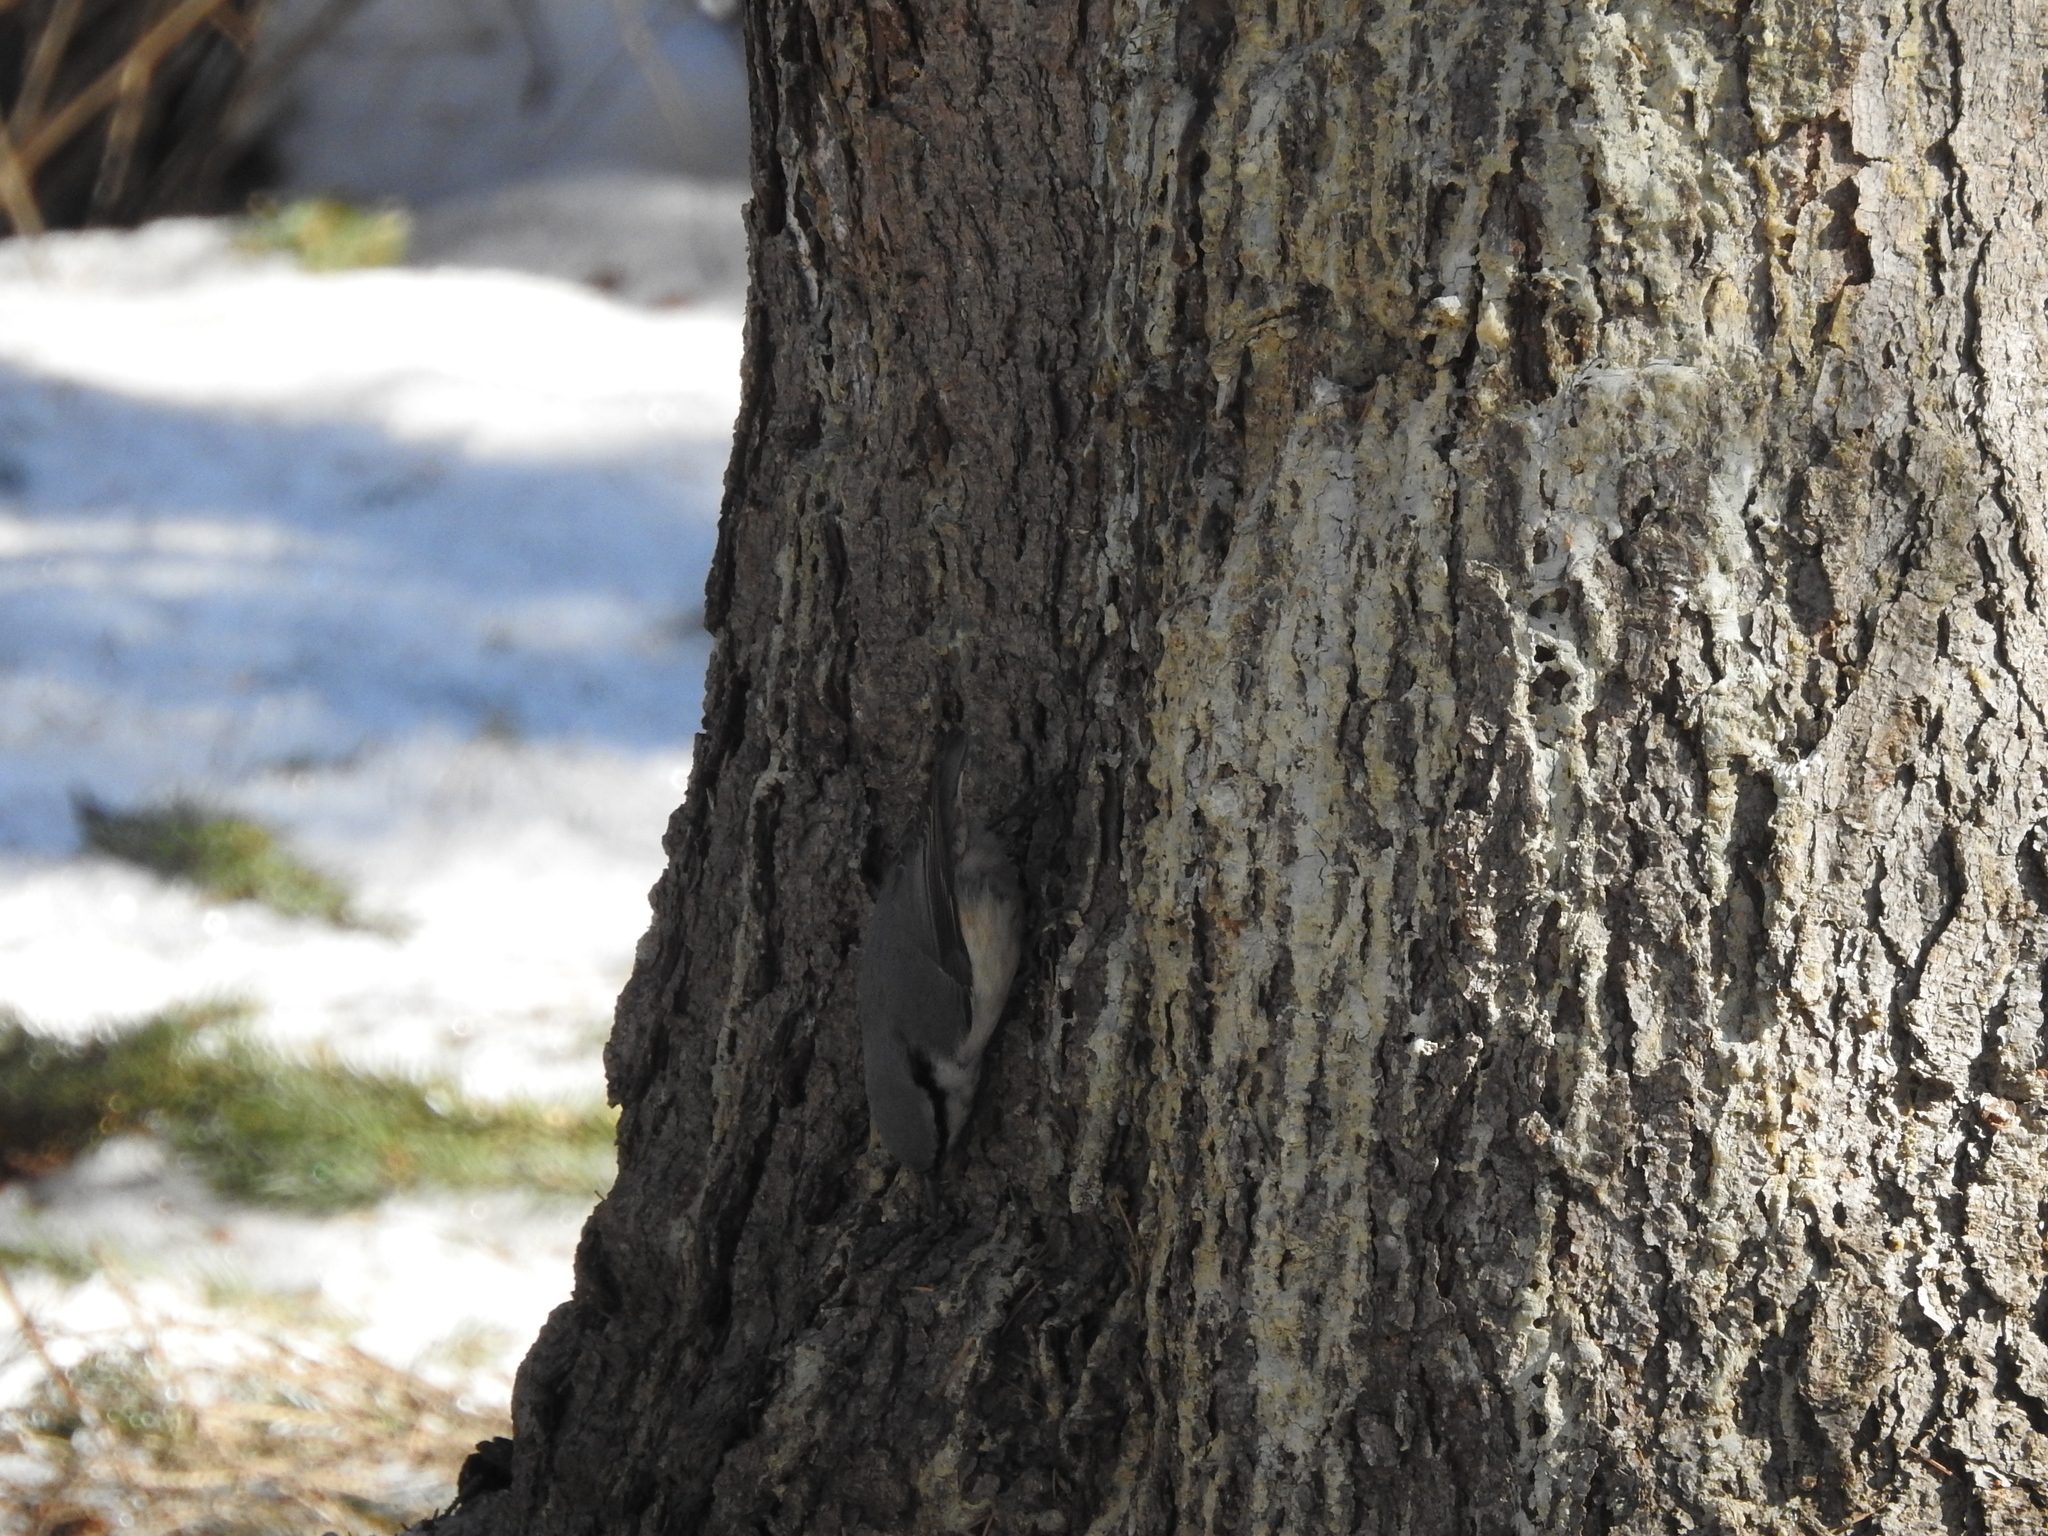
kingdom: Animalia
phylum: Chordata
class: Aves
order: Passeriformes
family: Sittidae
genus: Sitta
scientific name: Sitta europaea
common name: Eurasian nuthatch
